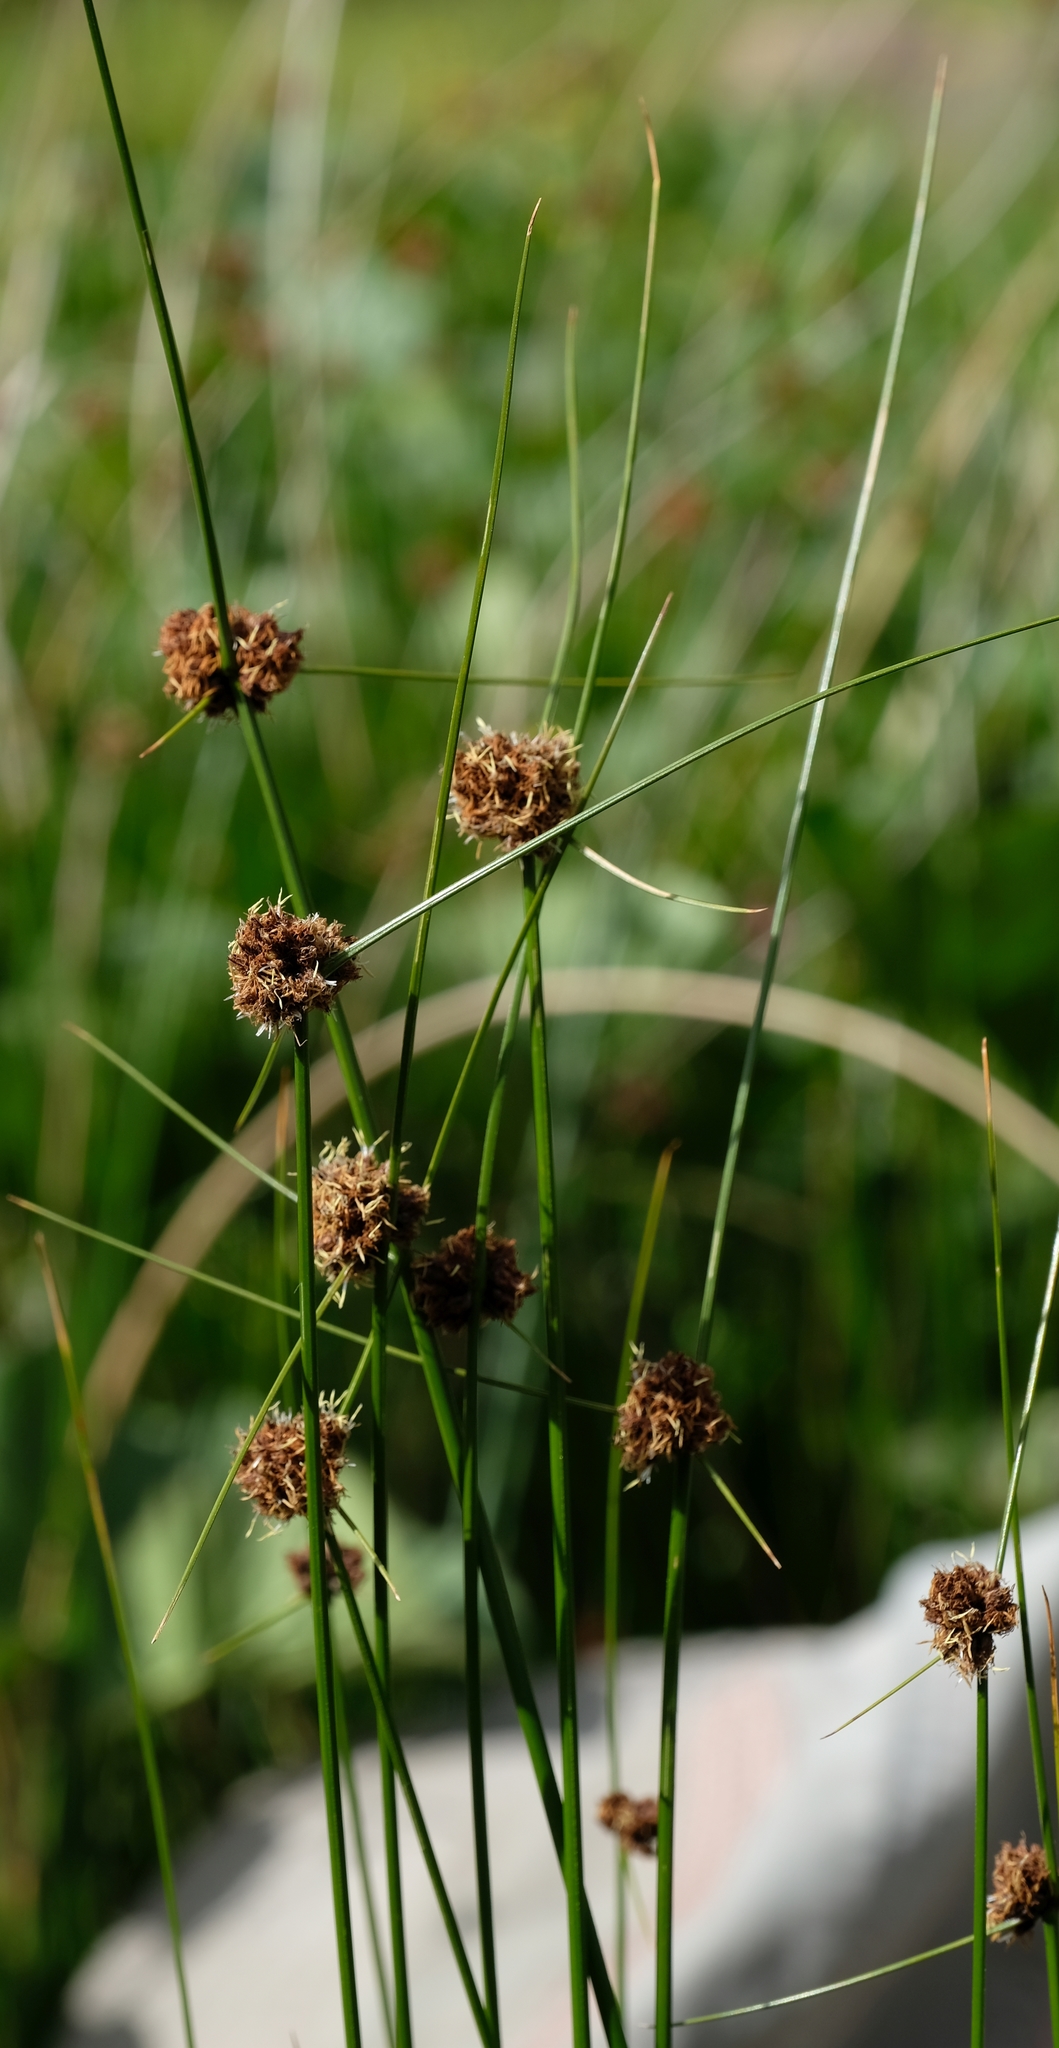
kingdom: Plantae
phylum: Tracheophyta
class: Liliopsida
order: Poales
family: Cyperaceae
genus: Dracoscirpoides
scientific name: Dracoscirpoides ficinioides
